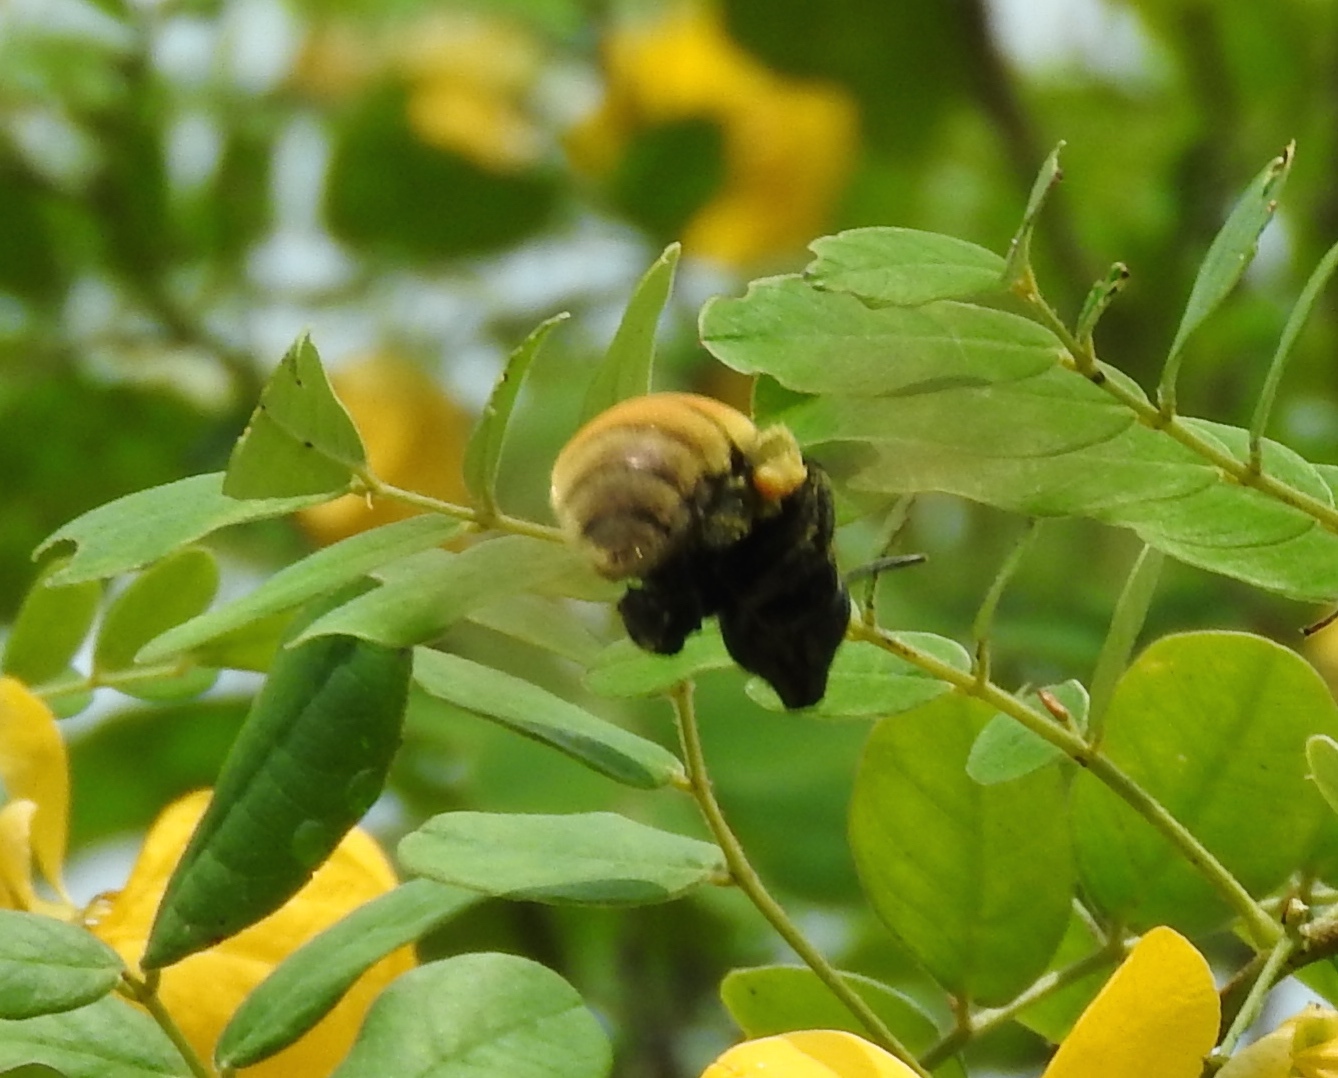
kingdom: Animalia
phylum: Arthropoda
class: Insecta
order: Hymenoptera
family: Apidae
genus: Eulaema
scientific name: Eulaema polychroma
